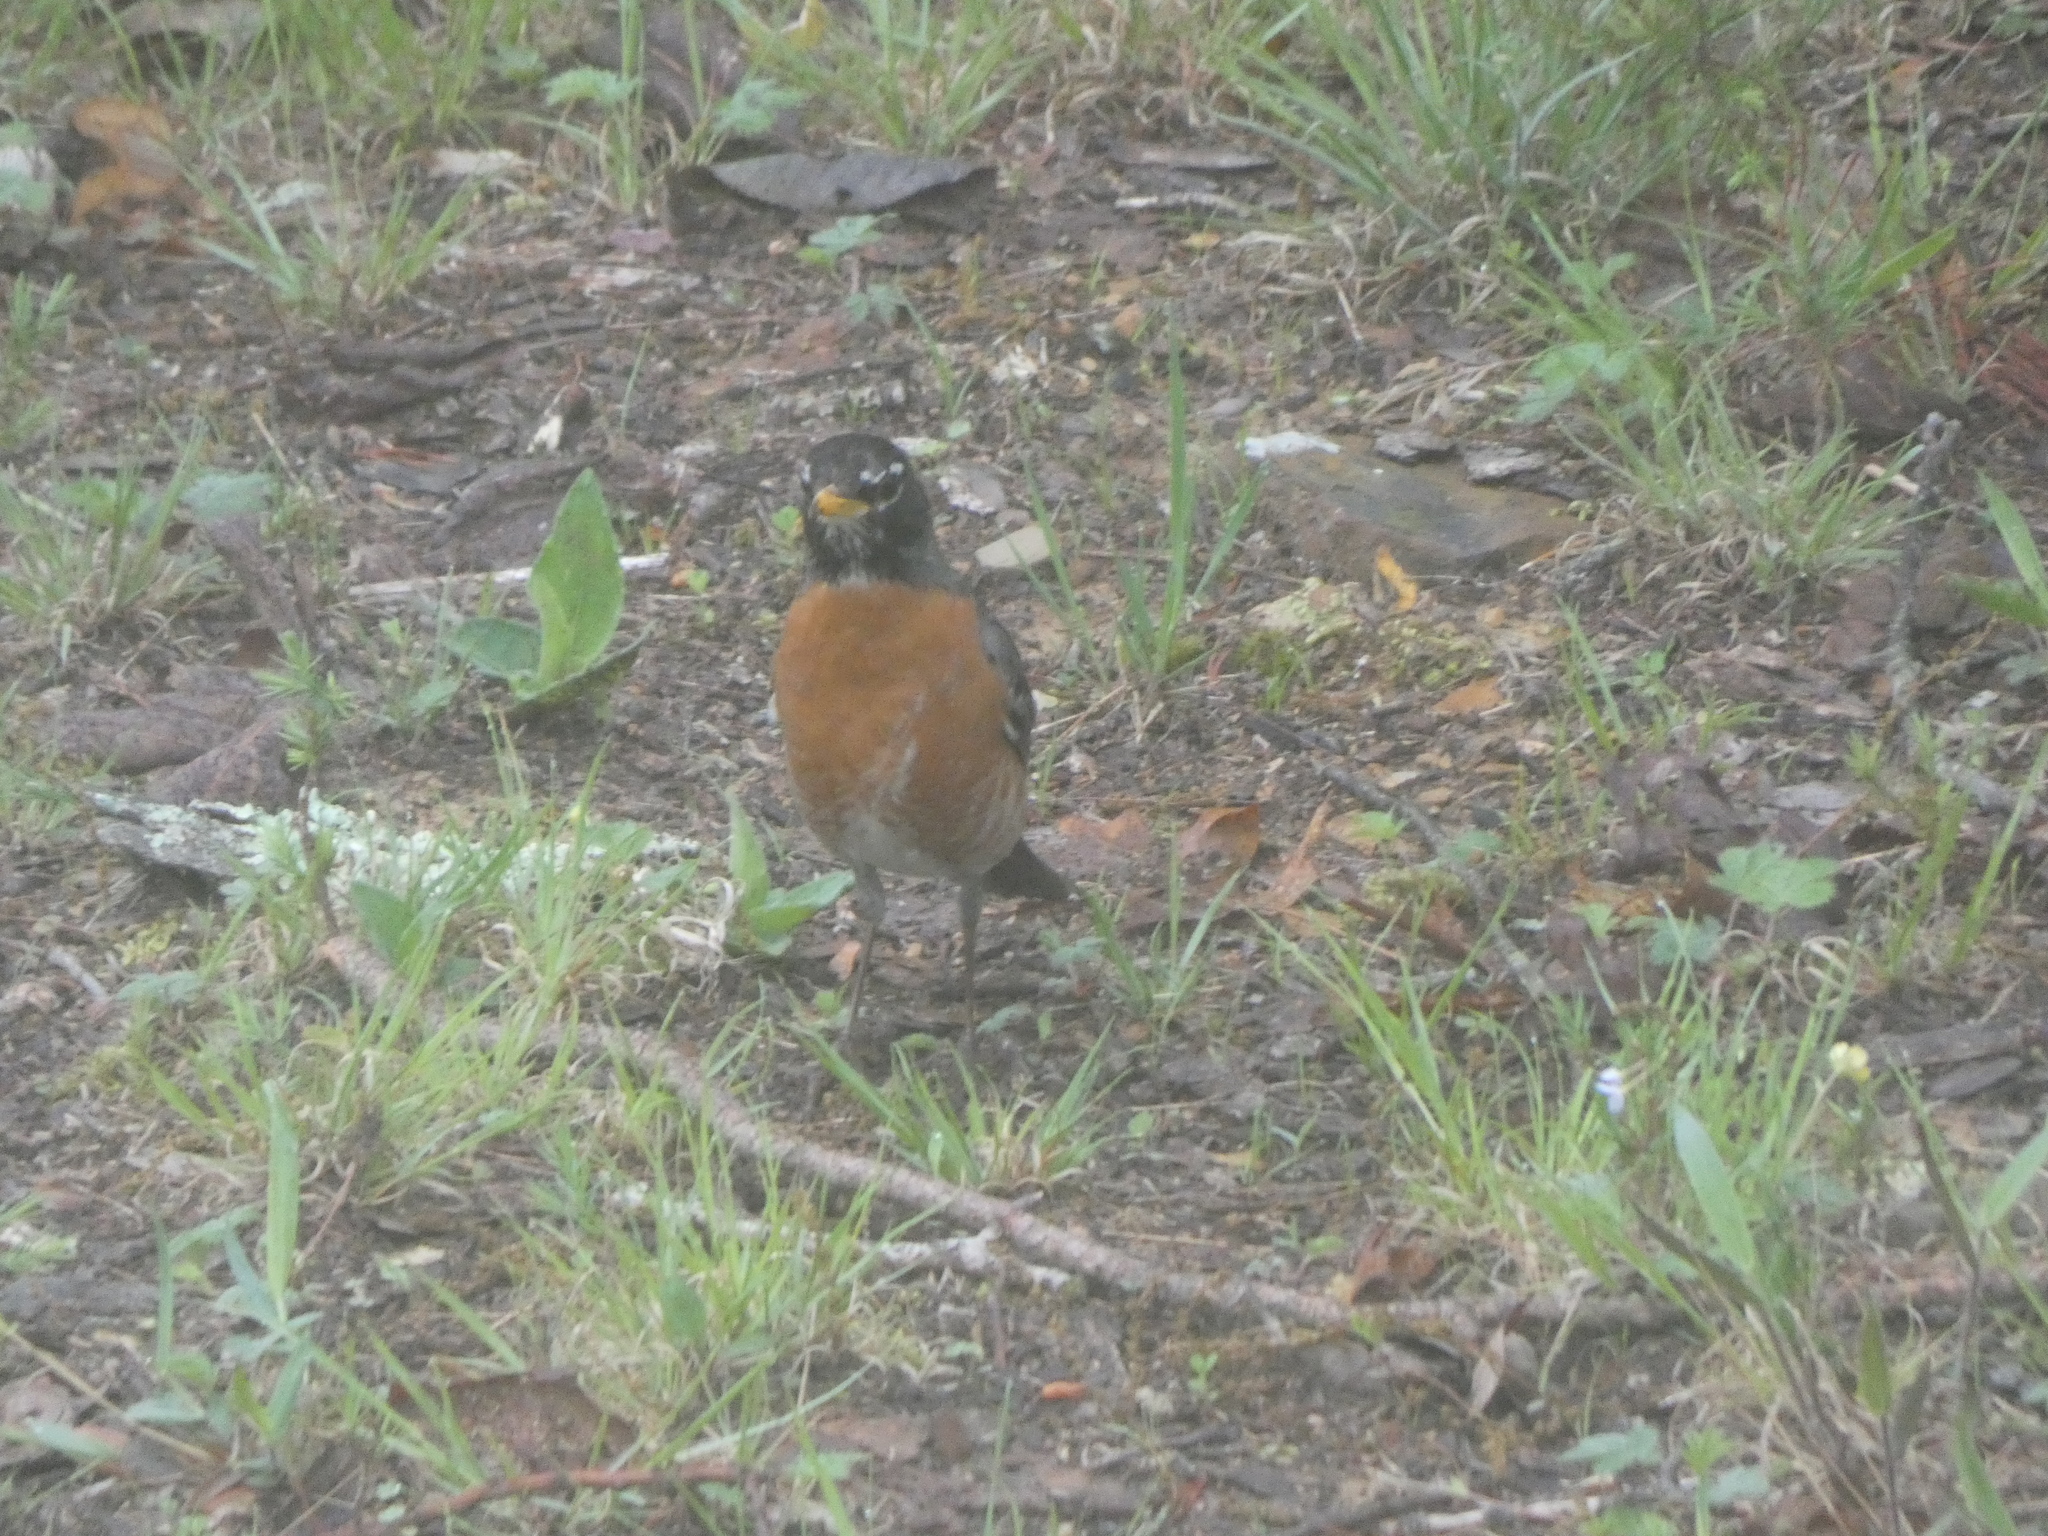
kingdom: Animalia
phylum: Chordata
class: Aves
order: Passeriformes
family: Turdidae
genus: Turdus
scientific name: Turdus migratorius
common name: American robin
